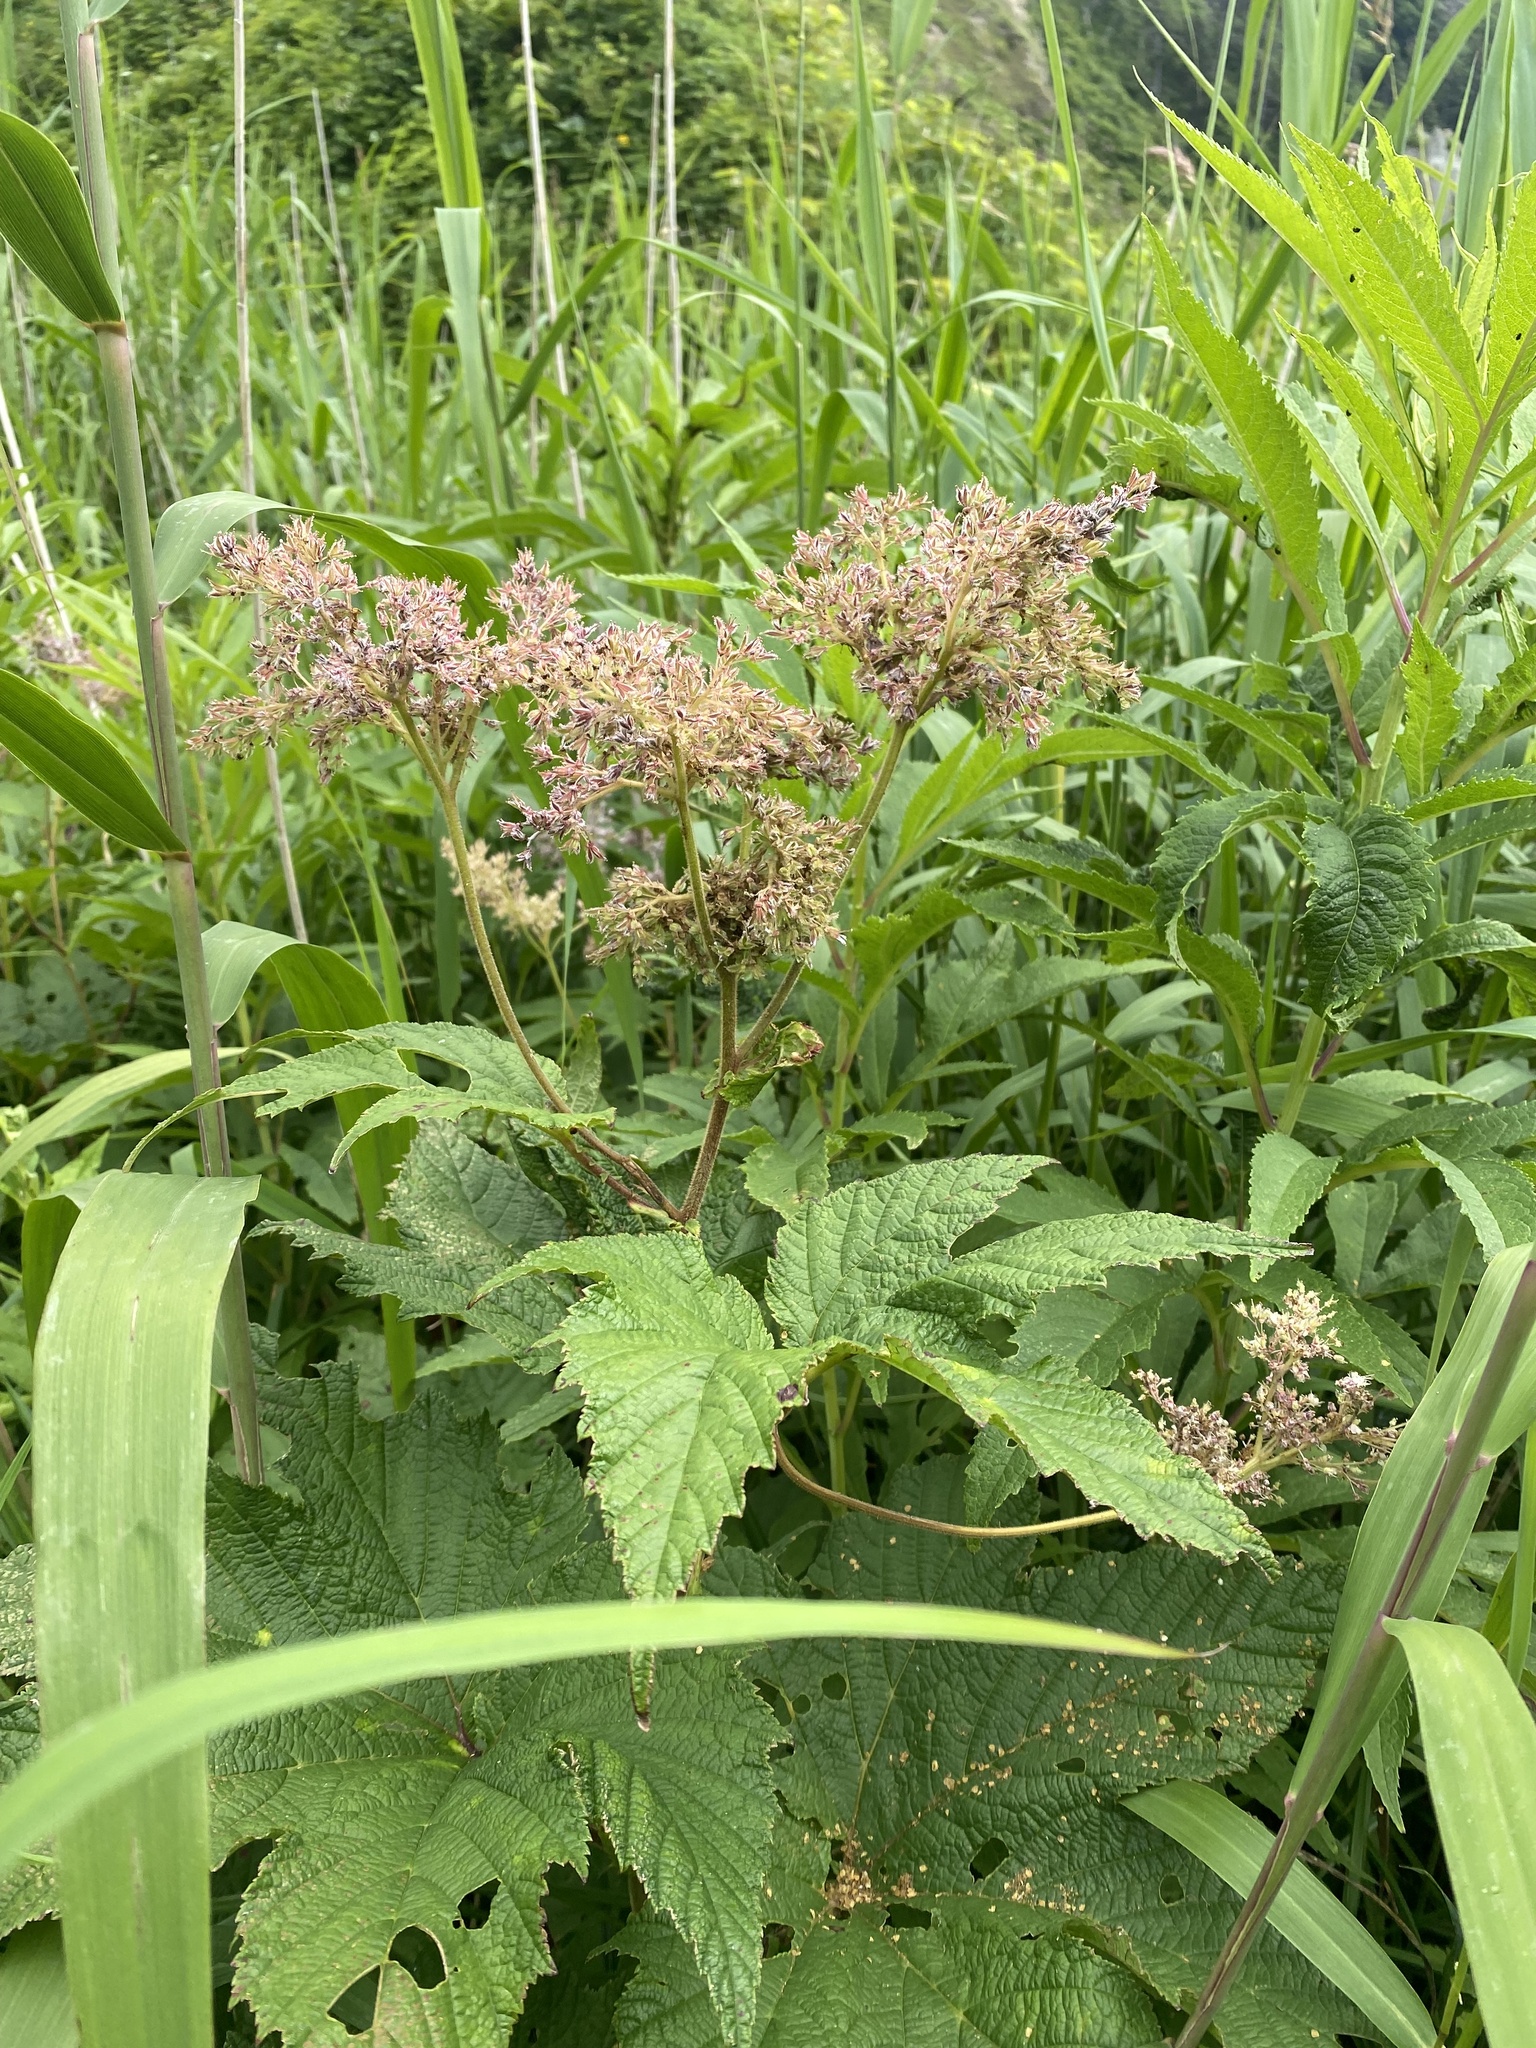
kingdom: Plantae
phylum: Tracheophyta
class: Magnoliopsida
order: Rosales
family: Rosaceae
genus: Filipendula
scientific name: Filipendula camtschatica
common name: Giant meadowsweet
